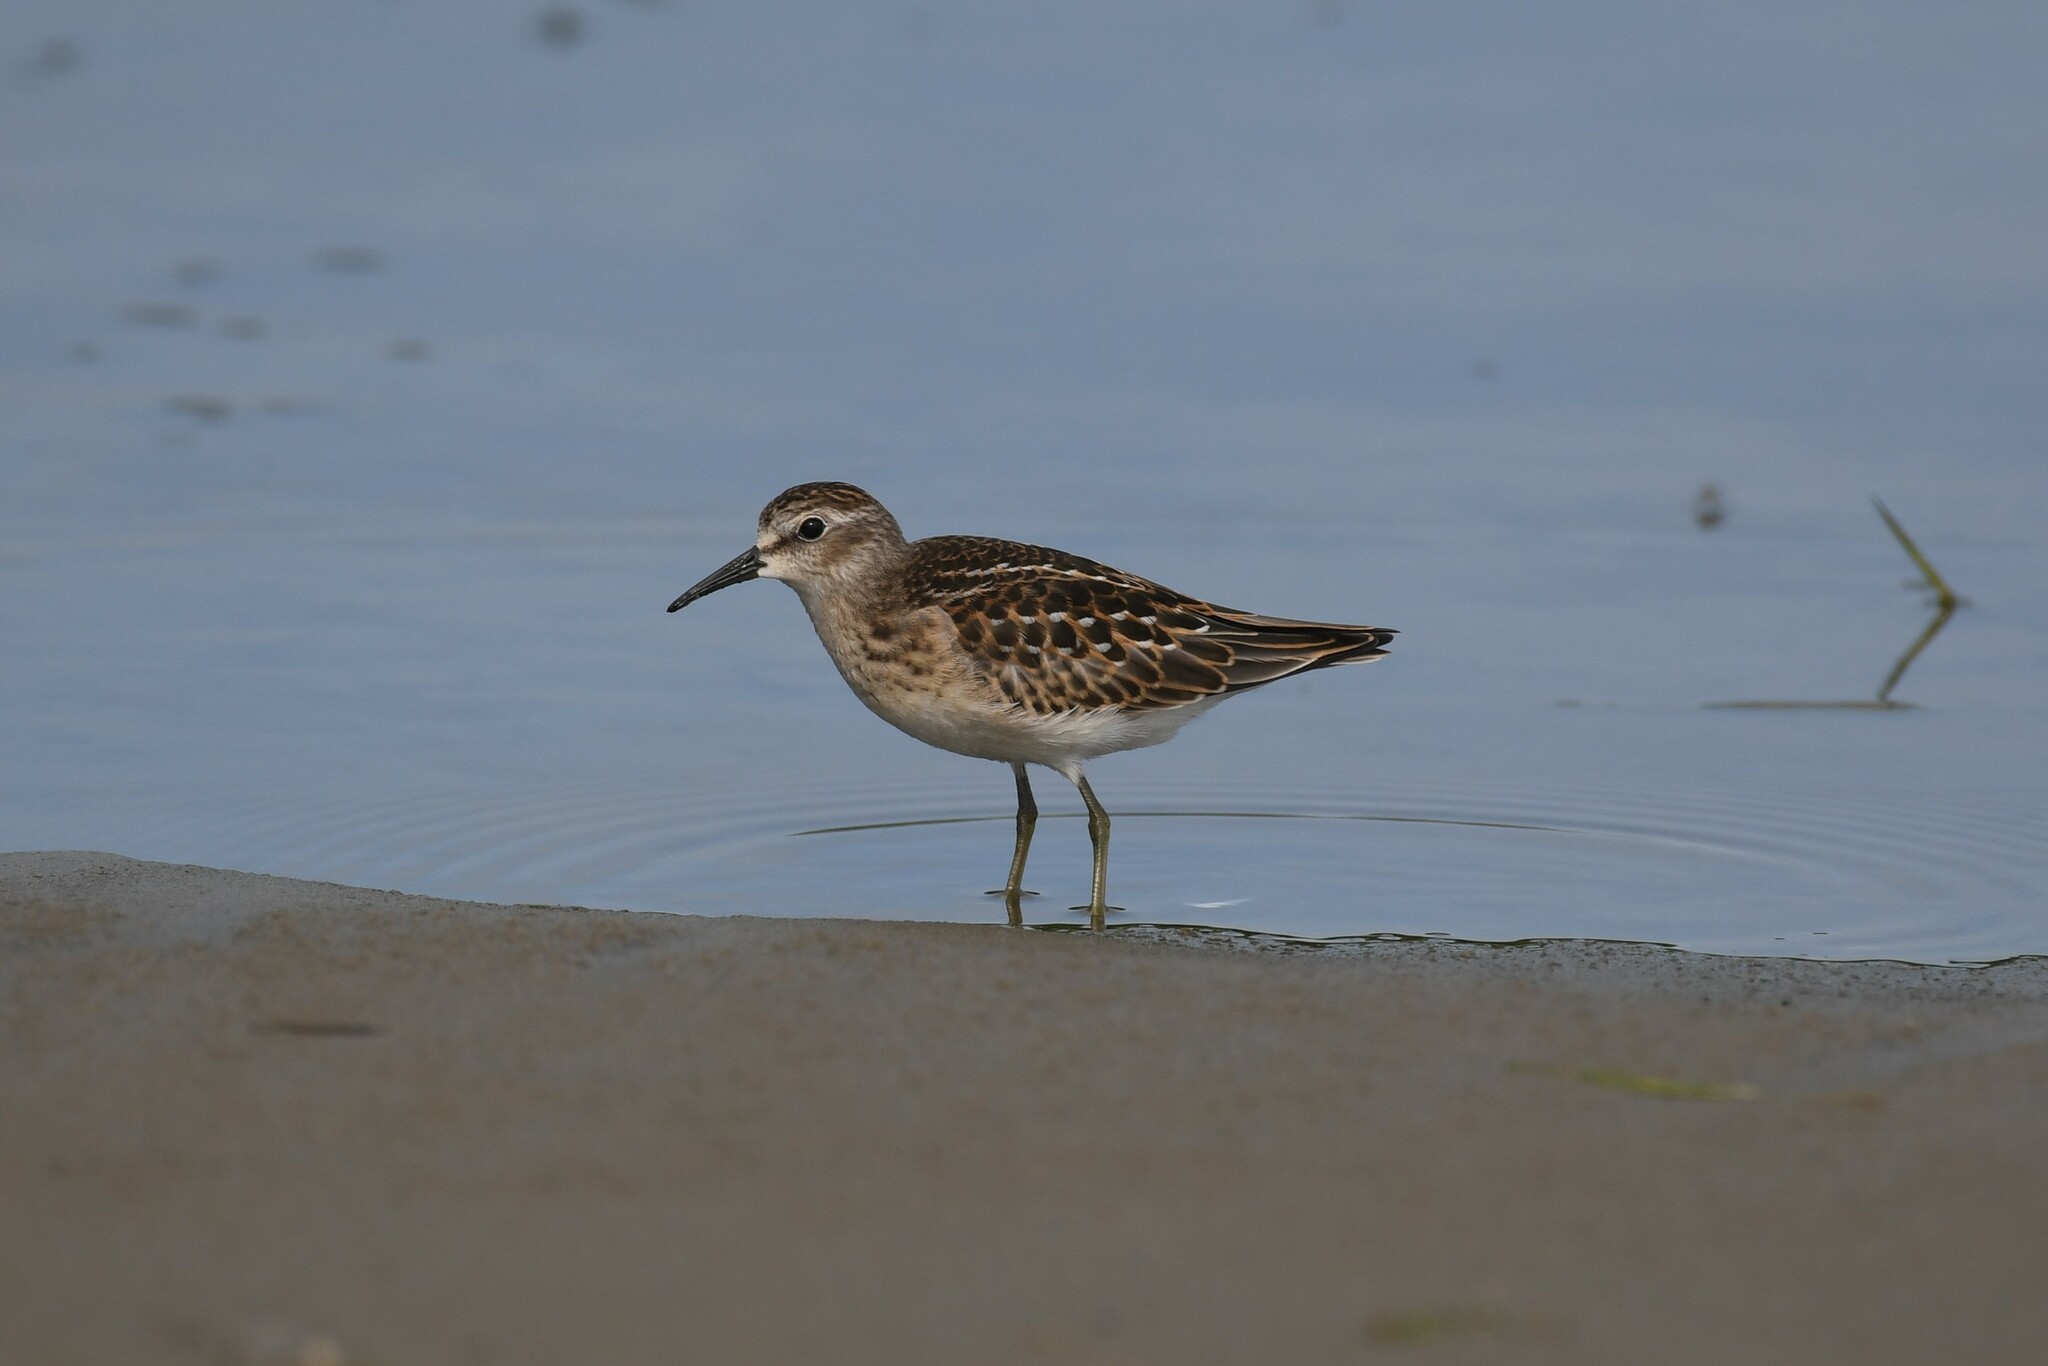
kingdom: Animalia
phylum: Chordata
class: Aves
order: Charadriiformes
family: Scolopacidae
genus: Calidris
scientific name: Calidris minutilla
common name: Least sandpiper
